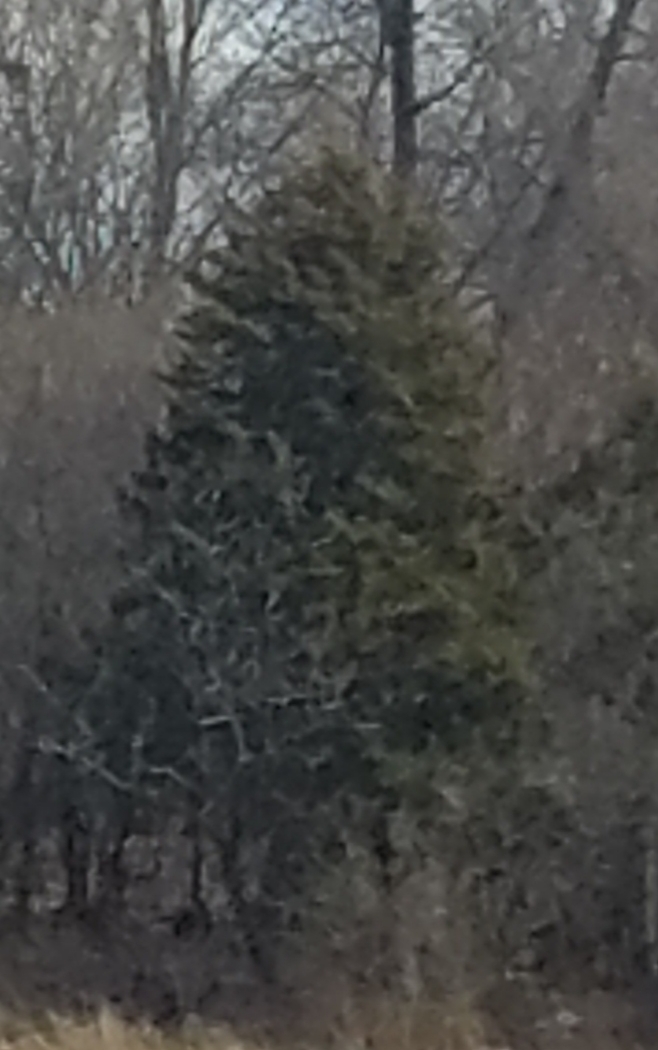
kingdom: Plantae
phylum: Tracheophyta
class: Pinopsida
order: Pinales
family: Cupressaceae
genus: Juniperus
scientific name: Juniperus virginiana
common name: Red juniper
